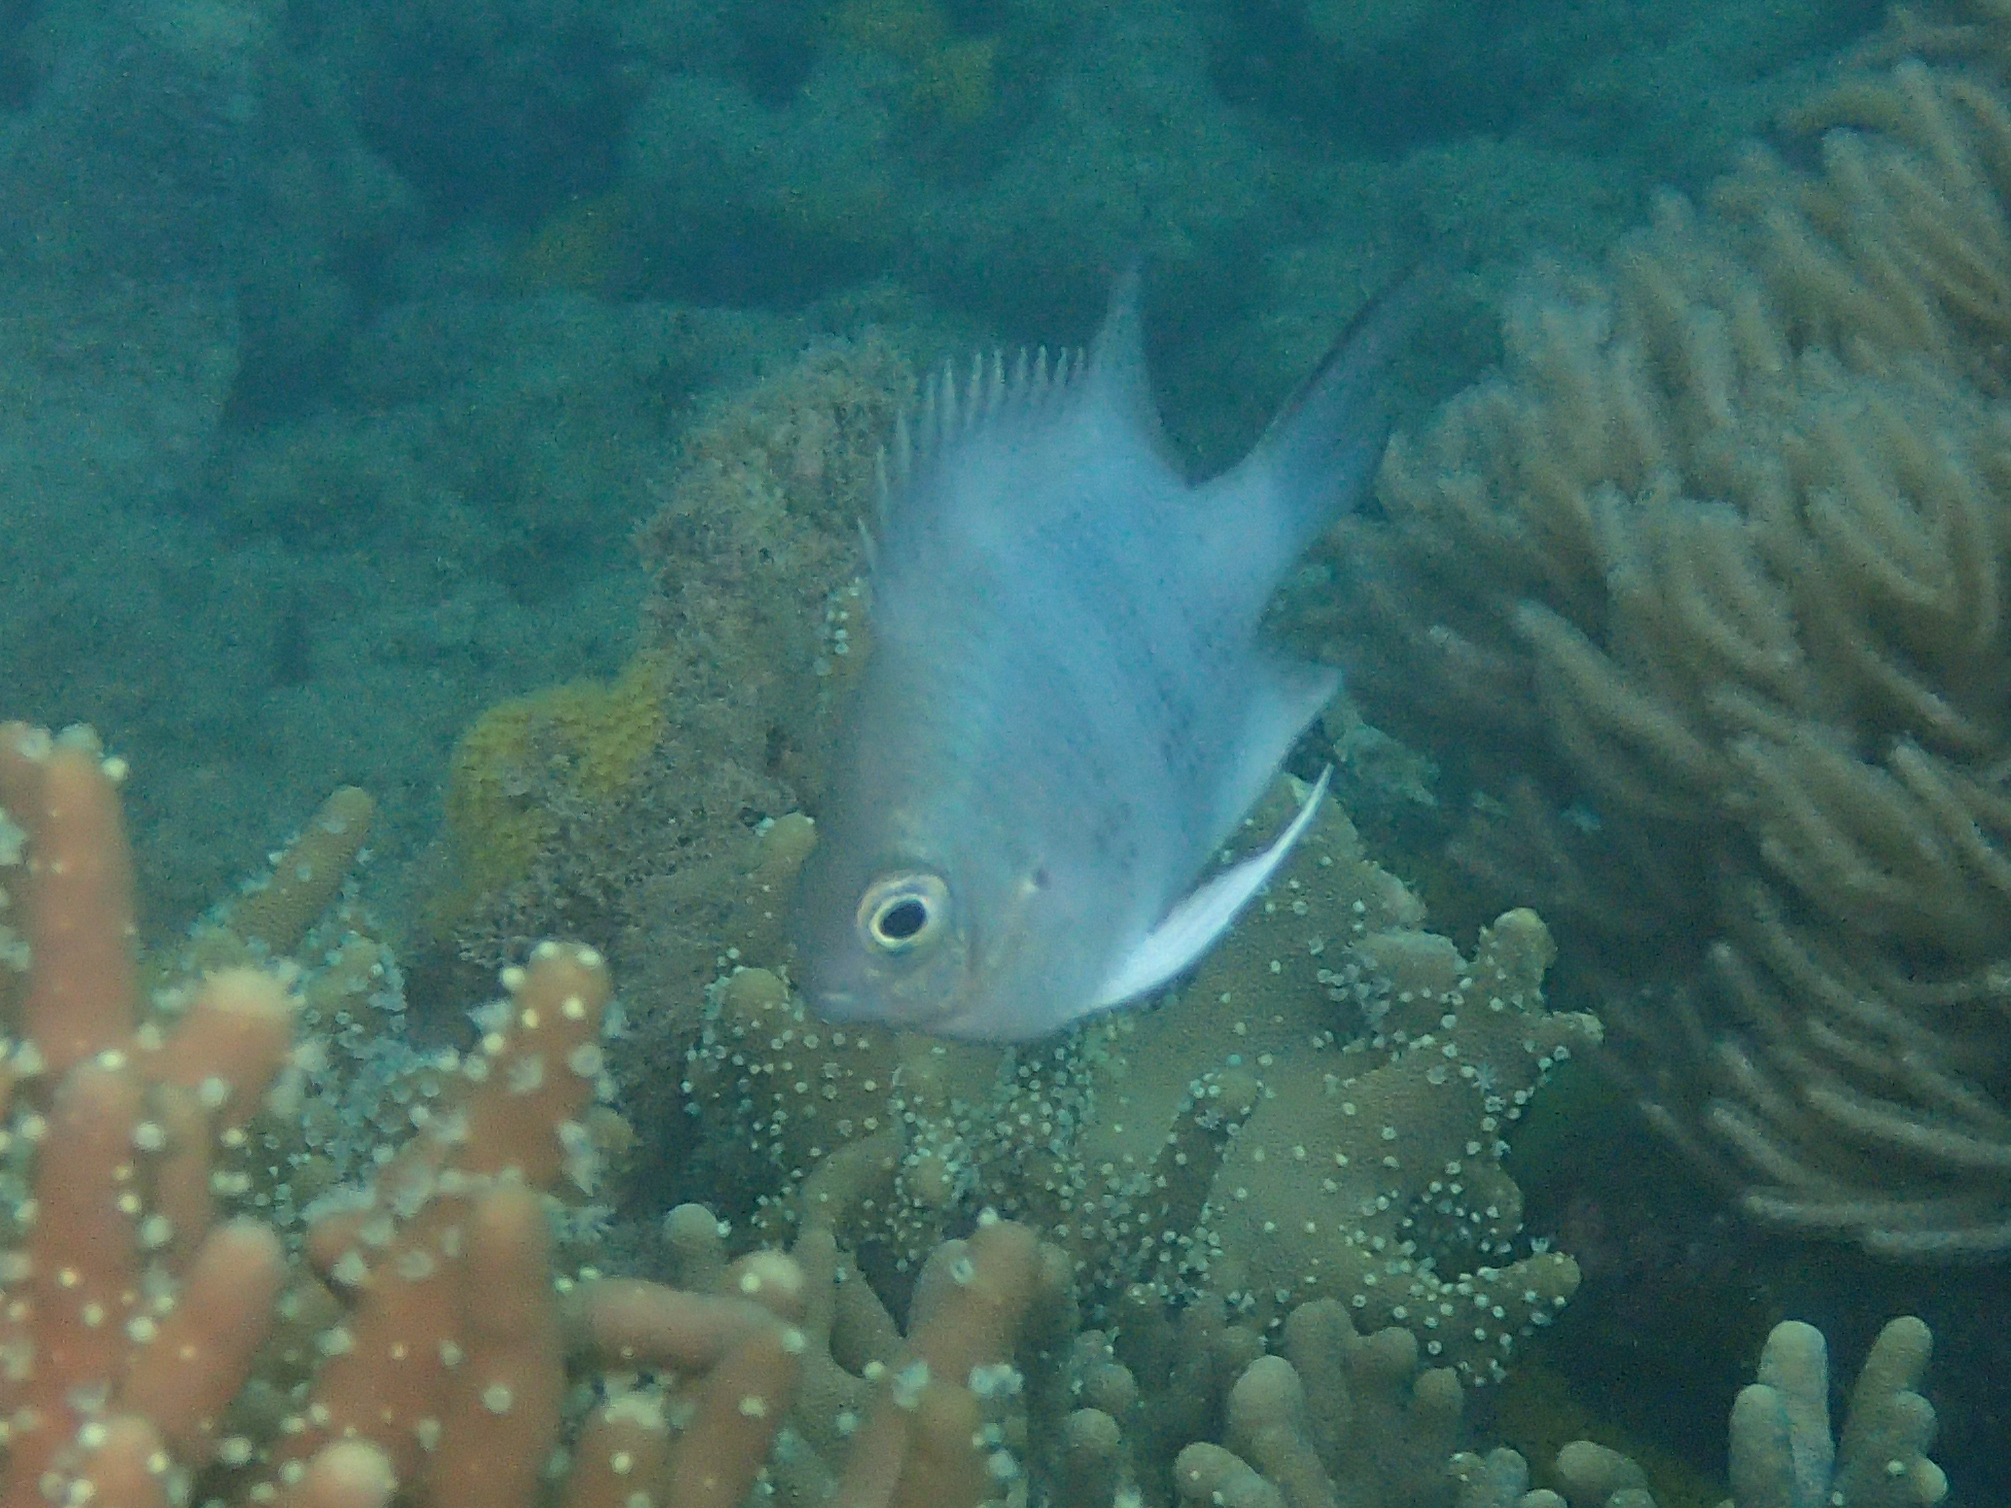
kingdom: Animalia
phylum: Chordata
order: Perciformes
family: Pomacentridae
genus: Amblyglyphidodon
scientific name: Amblyglyphidodon curacao
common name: Staghorn damsel
